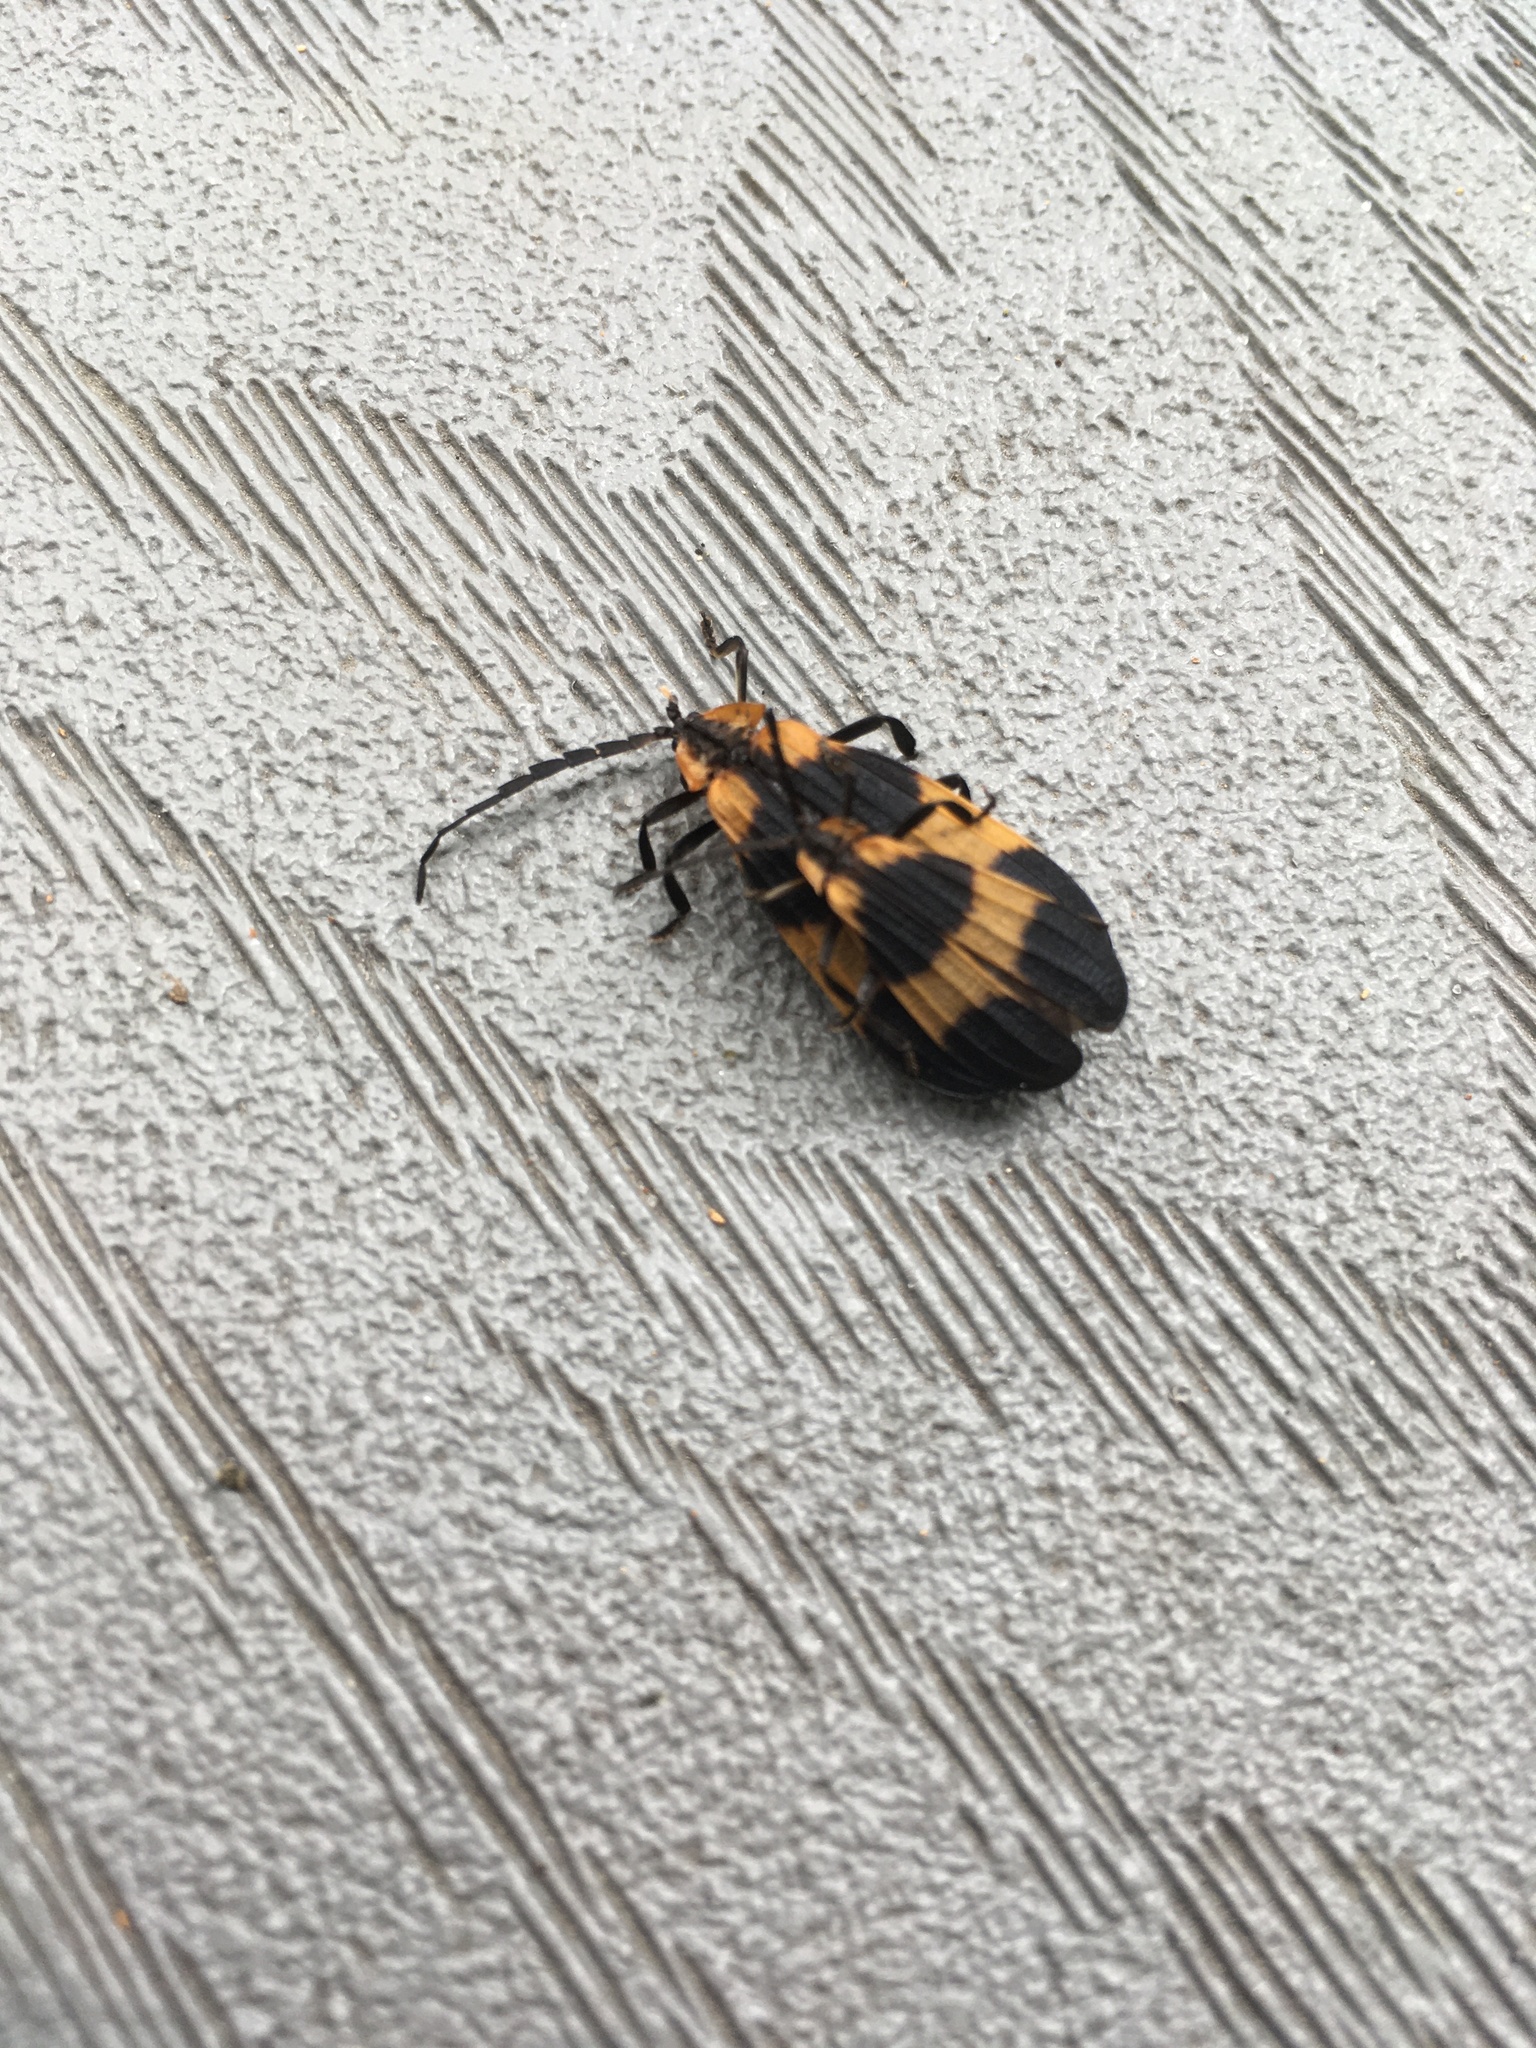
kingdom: Animalia
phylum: Arthropoda
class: Insecta
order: Coleoptera
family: Lycidae
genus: Calopteron
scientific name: Calopteron reticulatum
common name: Banded net-winged beetle
